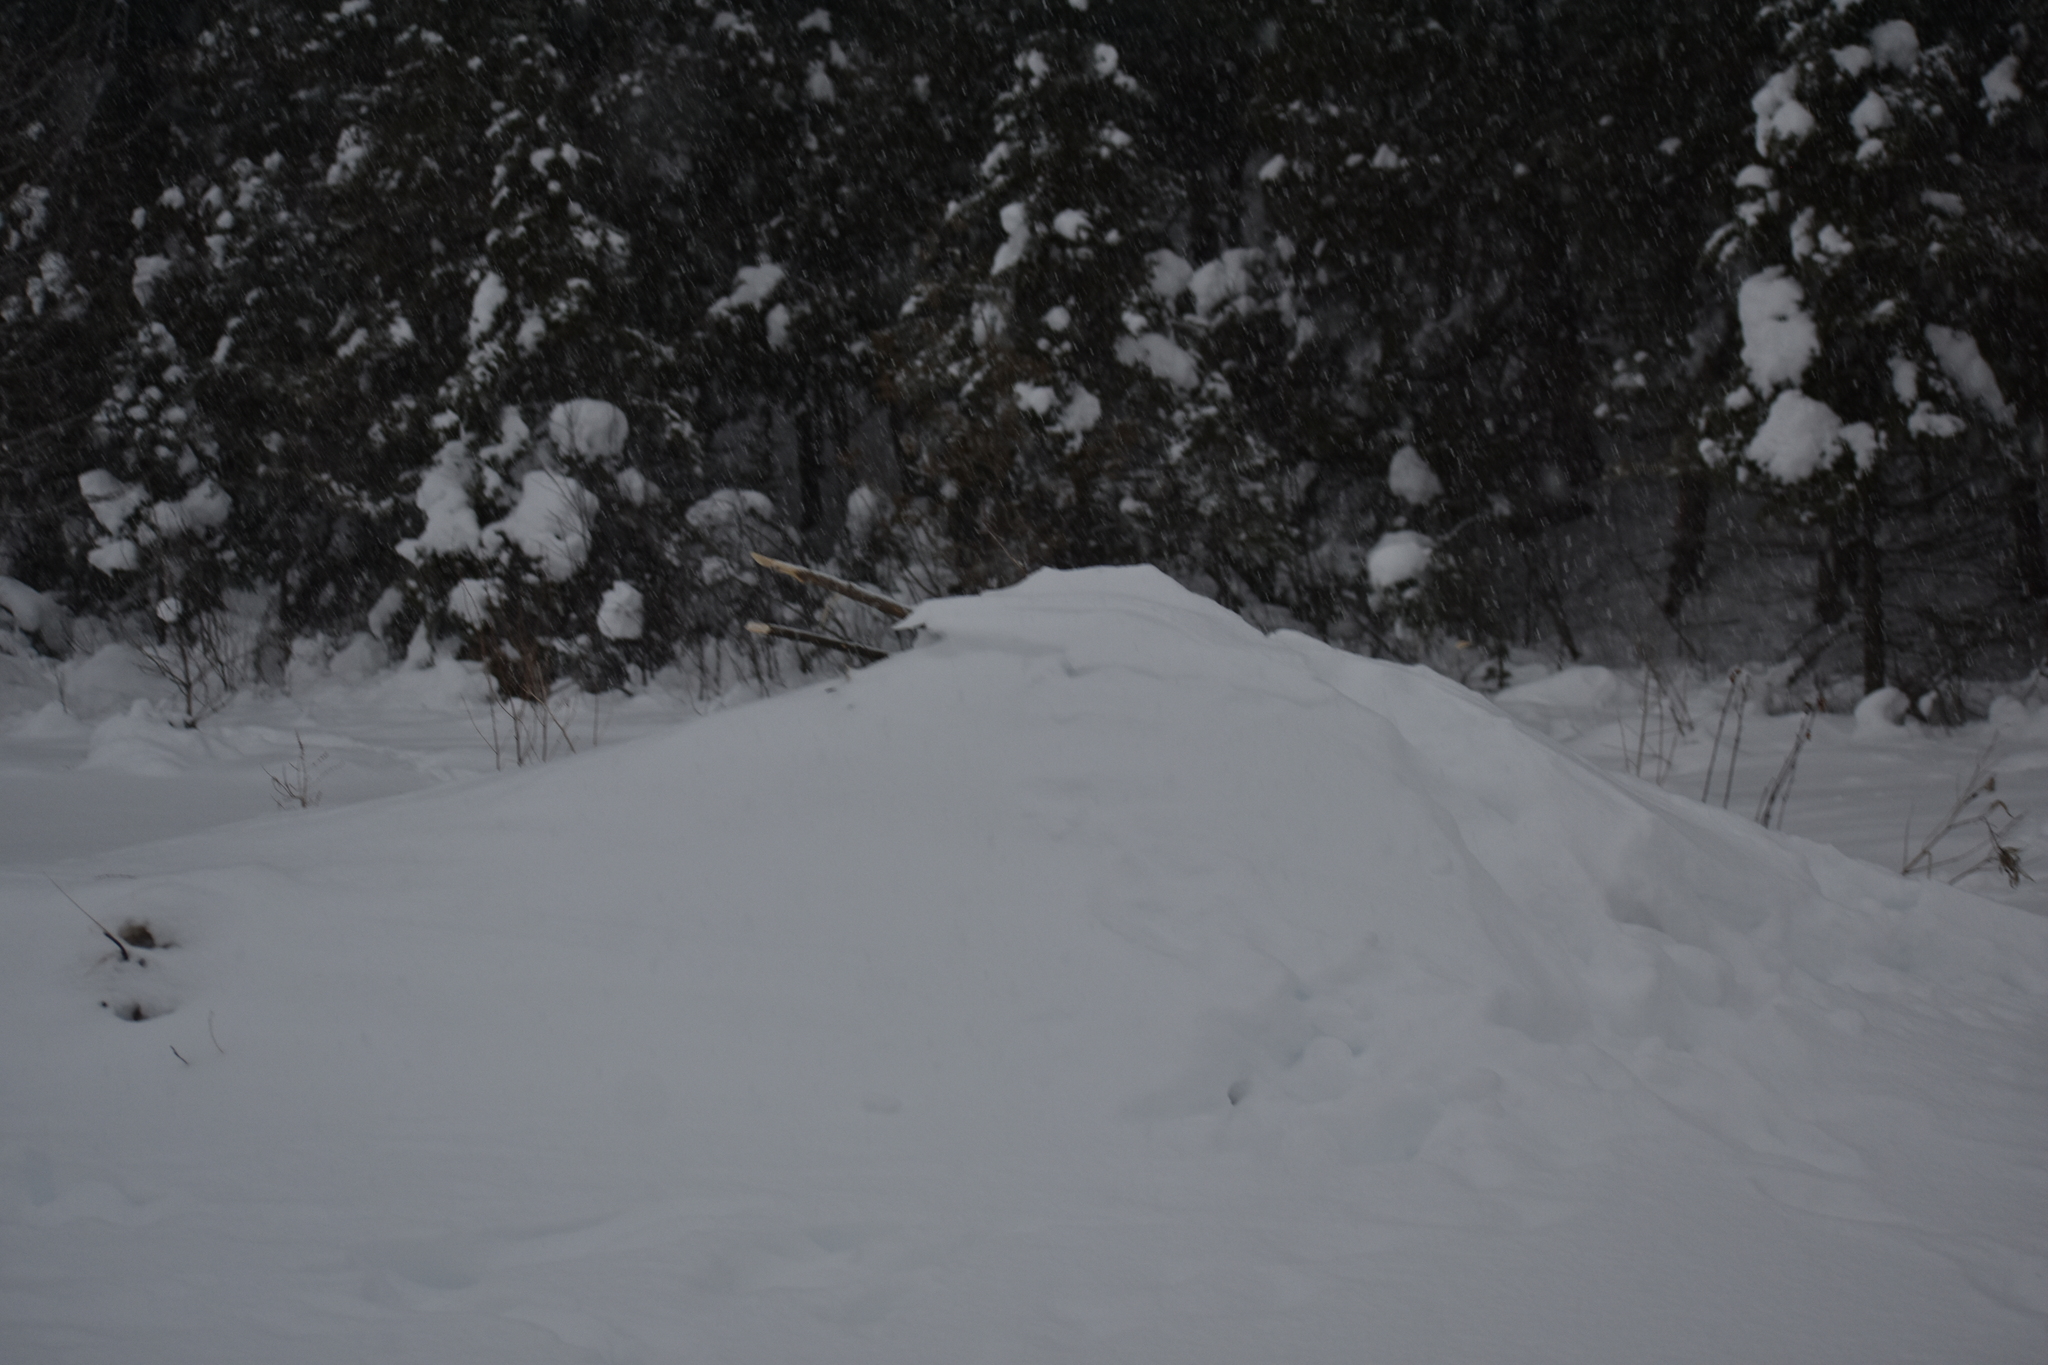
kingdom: Animalia
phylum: Chordata
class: Mammalia
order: Rodentia
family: Castoridae
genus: Castor
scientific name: Castor canadensis
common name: American beaver
